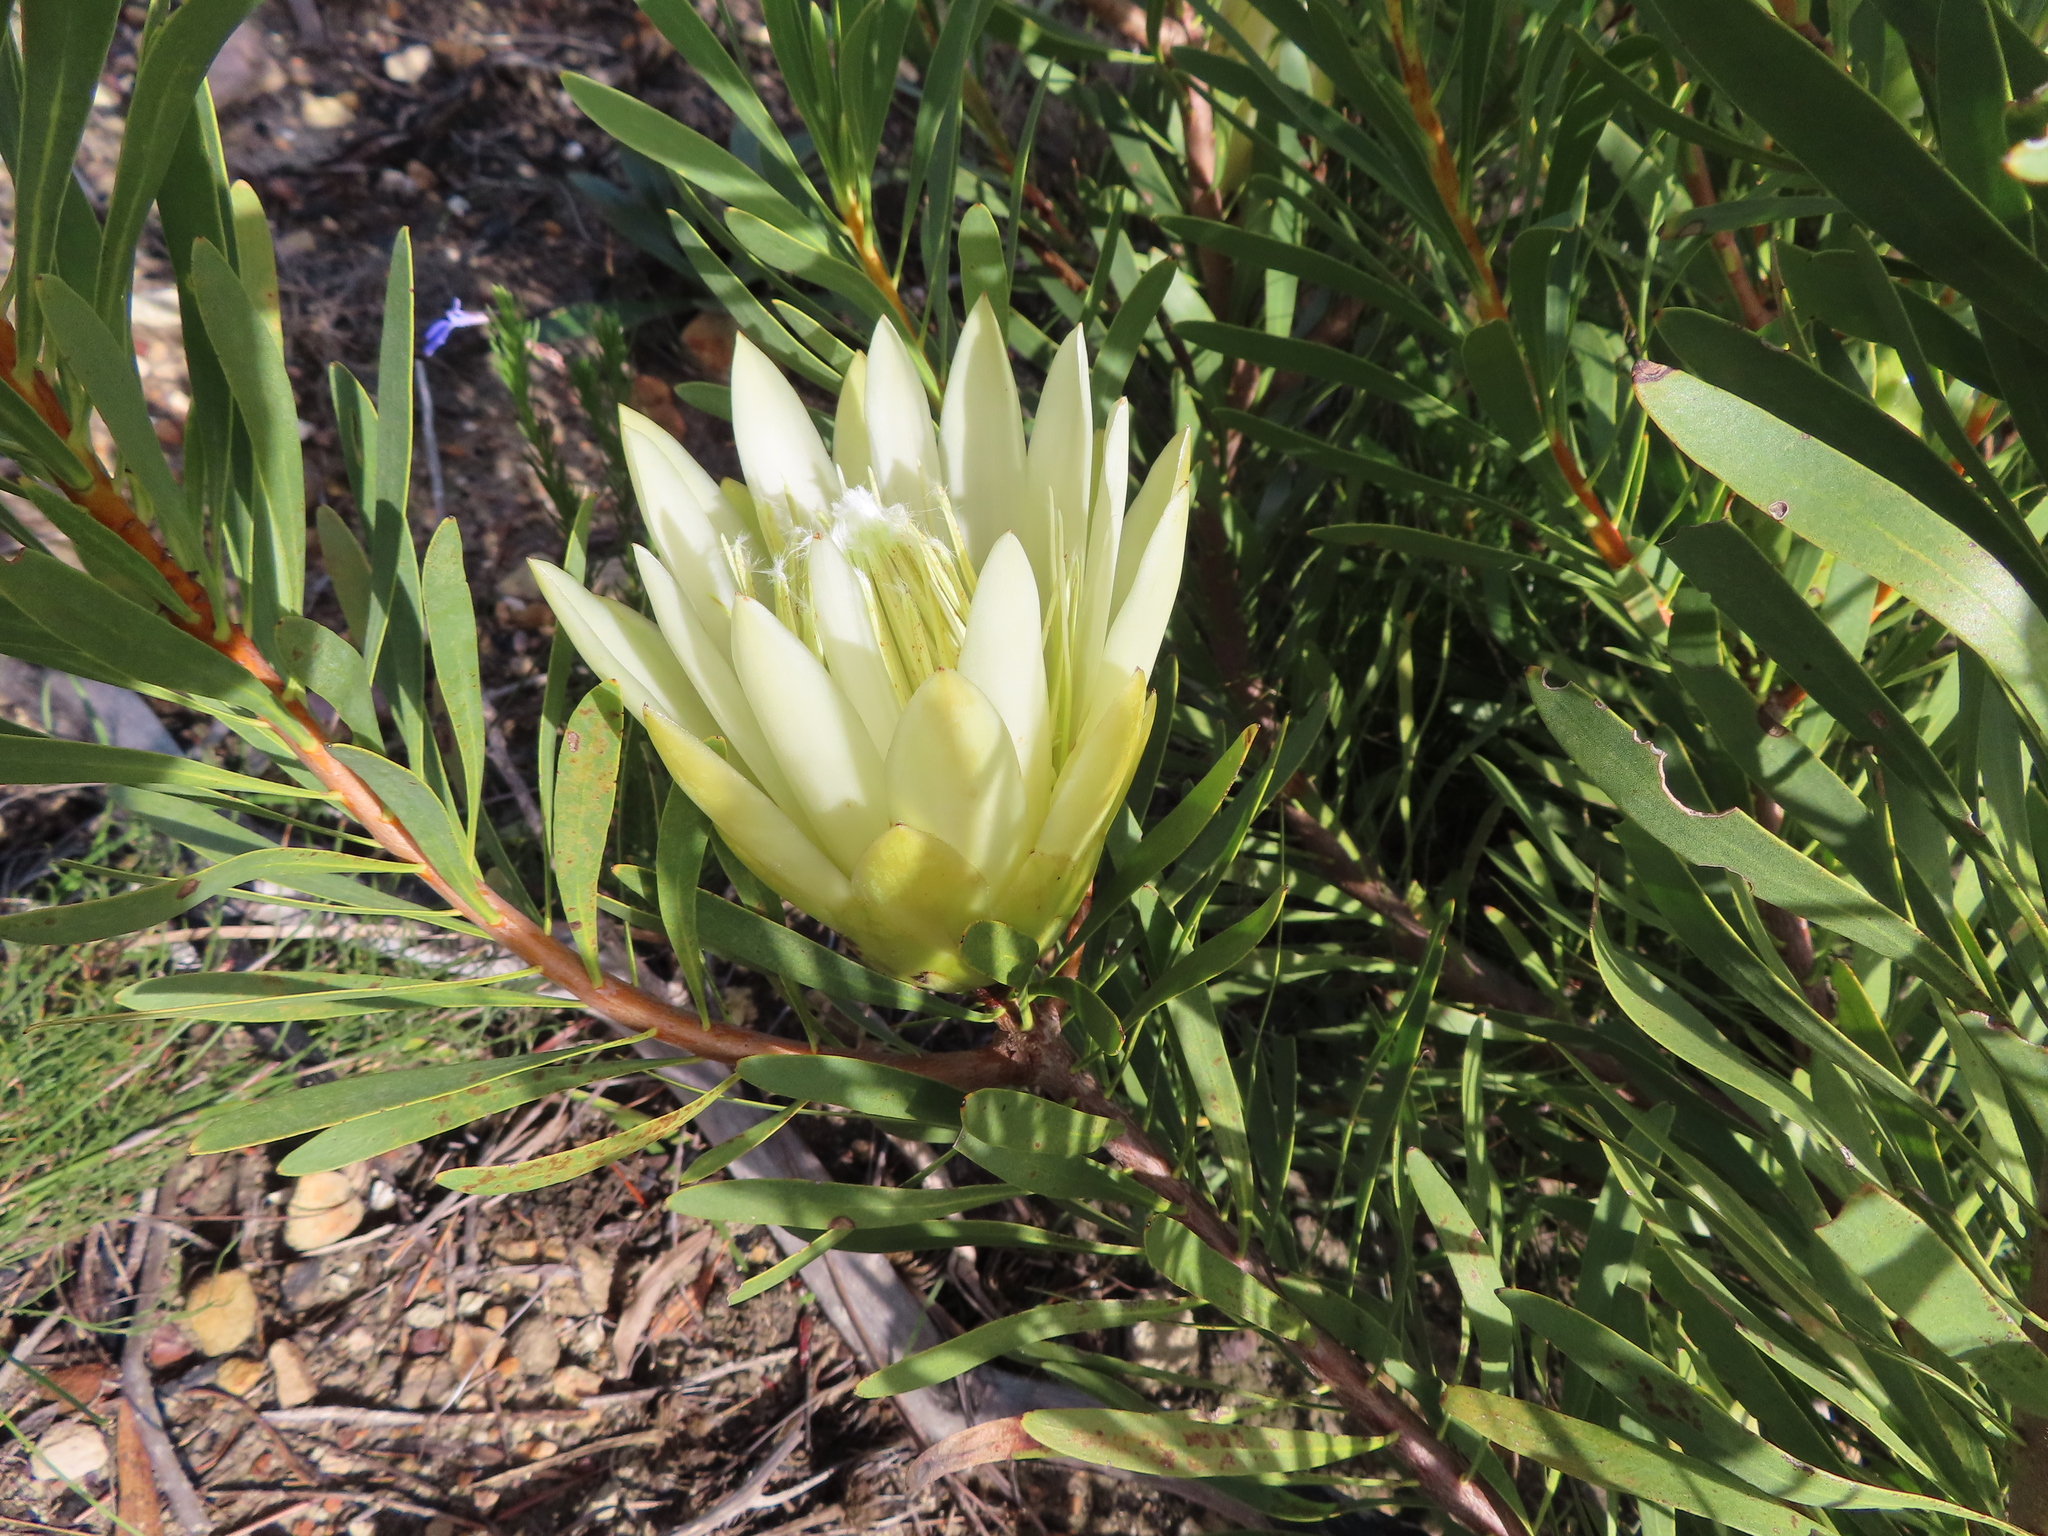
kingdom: Plantae
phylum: Tracheophyta
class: Magnoliopsida
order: Proteales
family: Proteaceae
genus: Protea
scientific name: Protea repens
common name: Sugarbush
